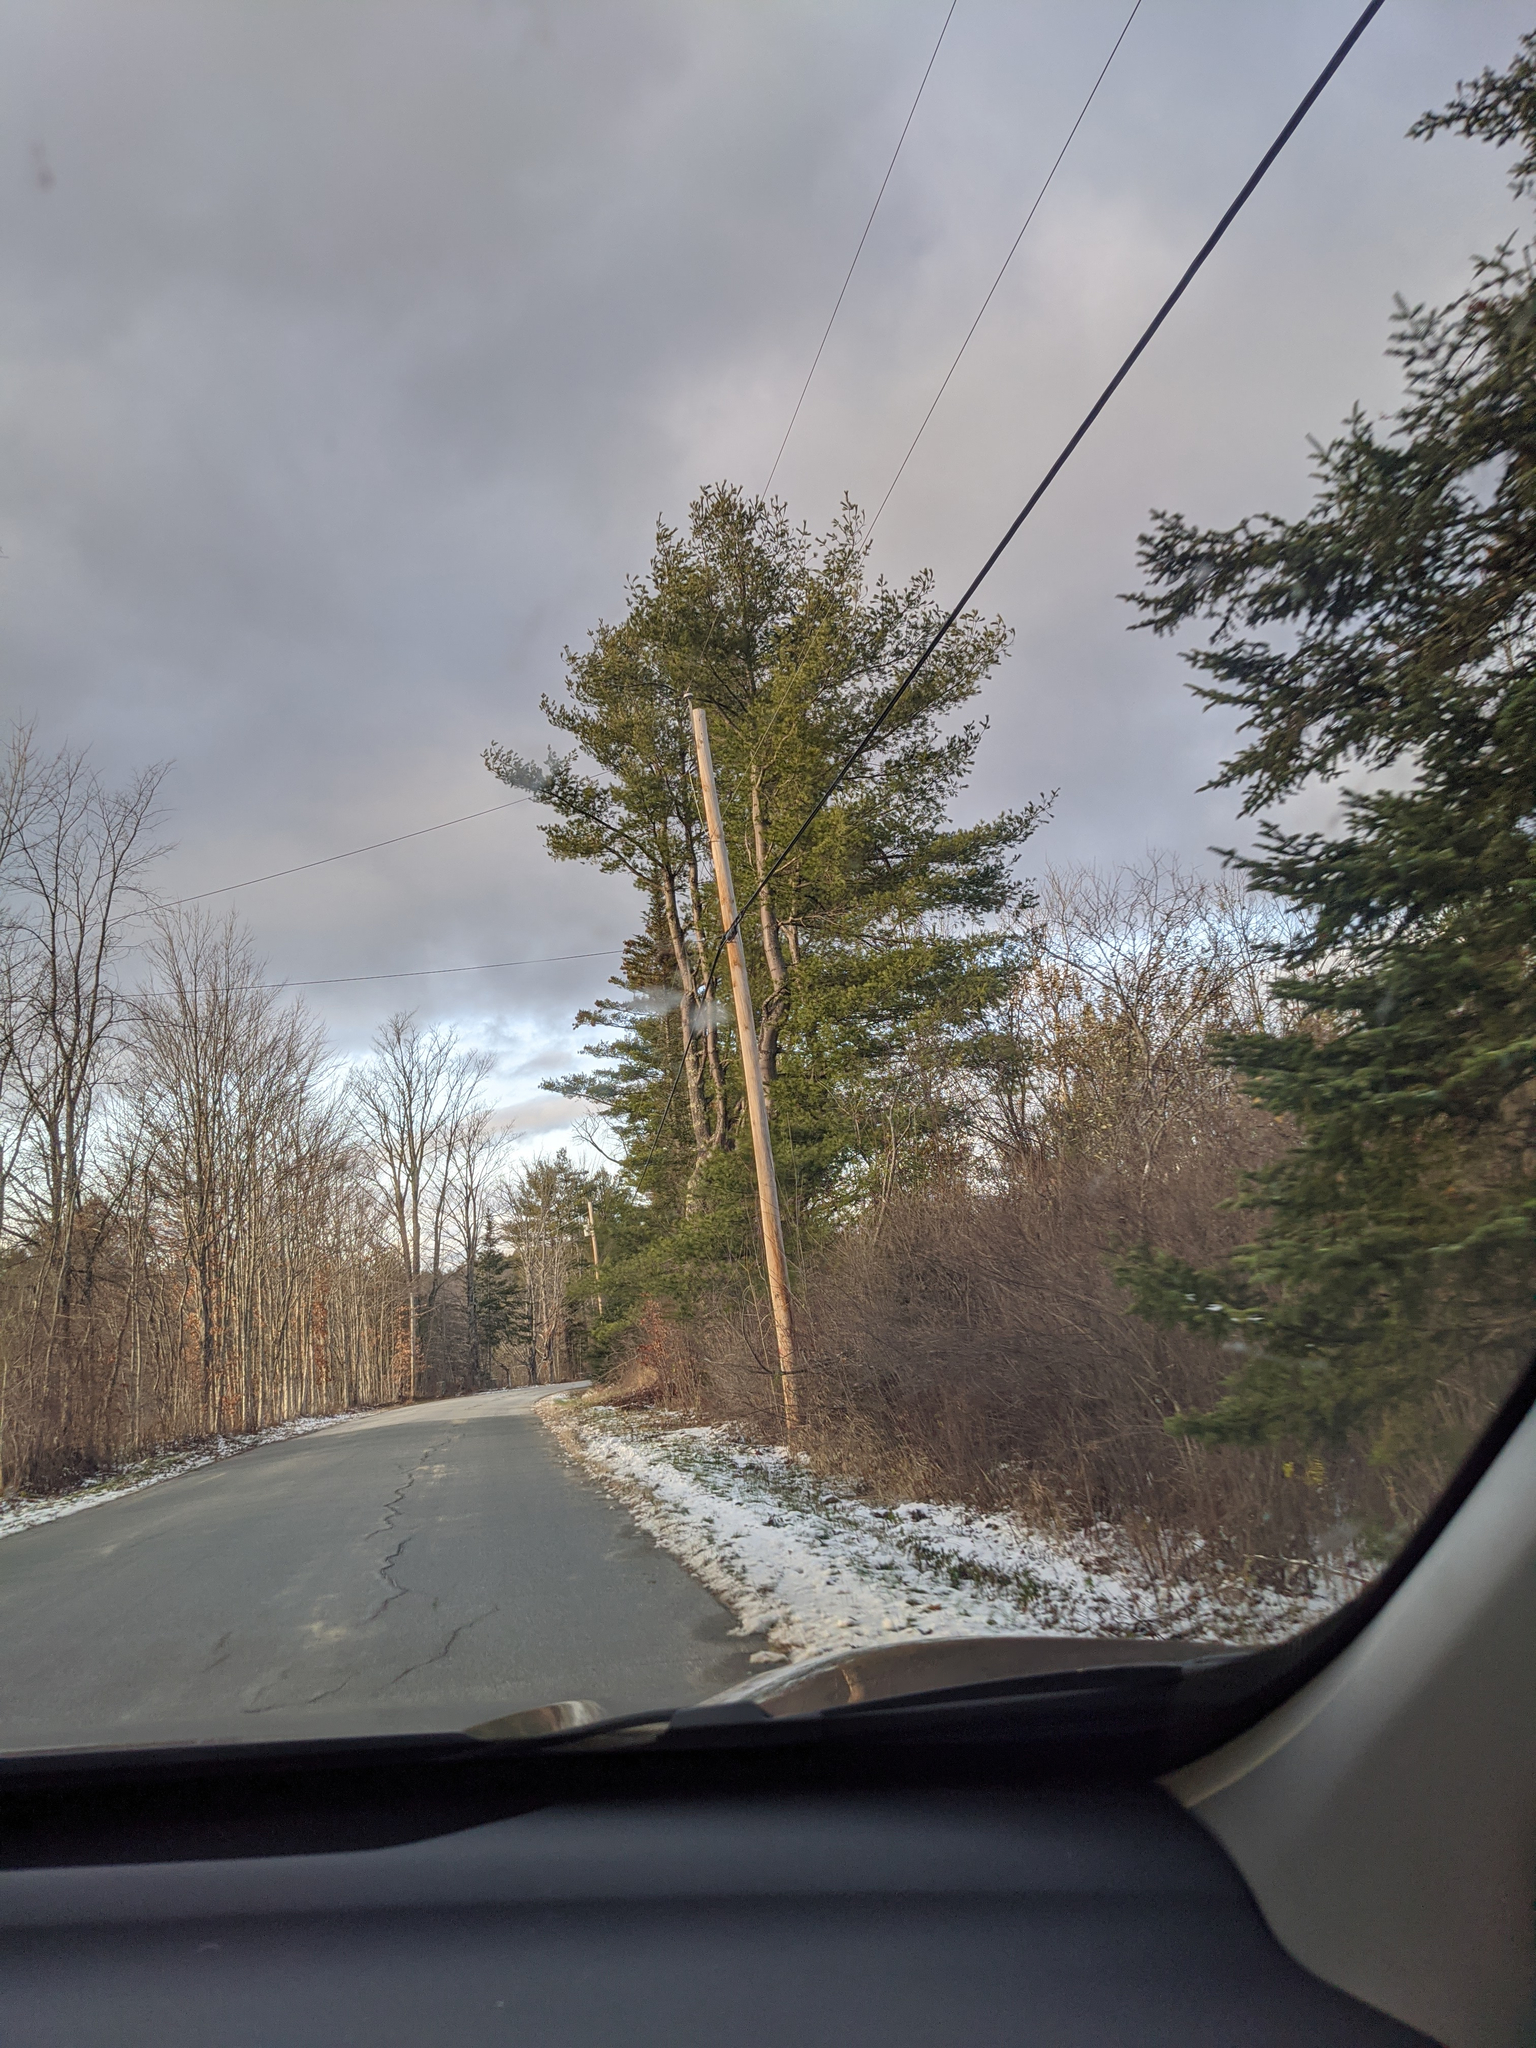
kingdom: Plantae
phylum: Tracheophyta
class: Pinopsida
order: Pinales
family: Pinaceae
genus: Pinus
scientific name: Pinus strobus
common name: Weymouth pine
